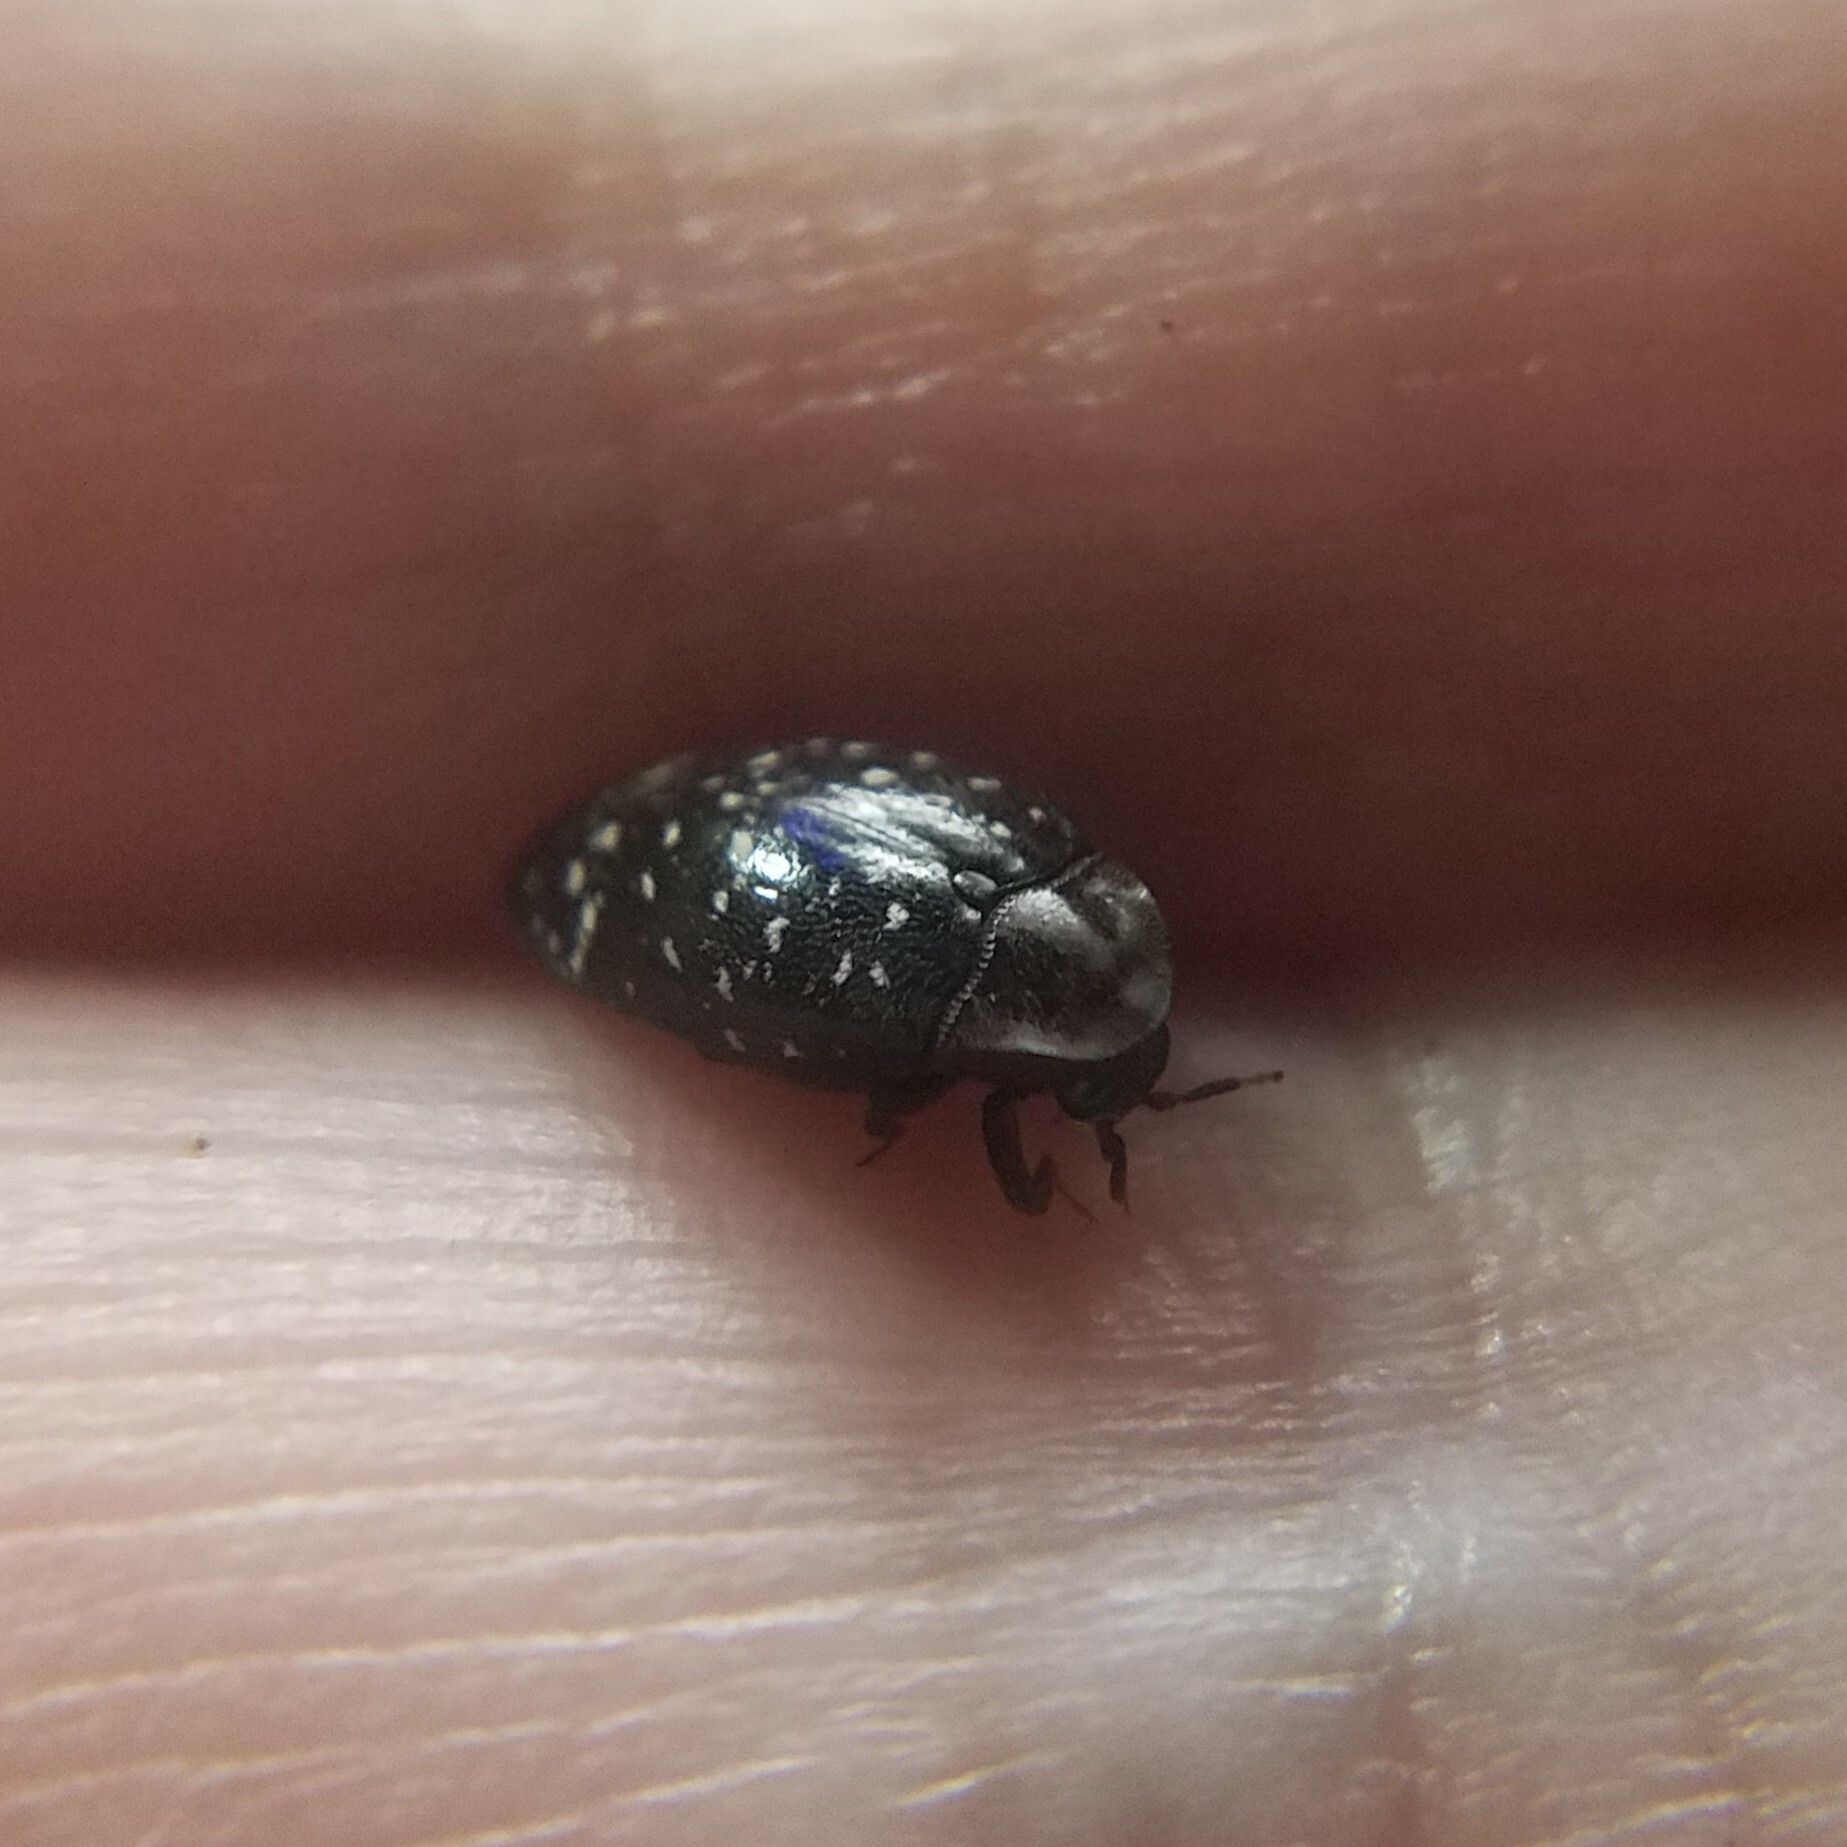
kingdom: Animalia
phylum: Arthropoda
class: Insecta
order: Coleoptera
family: Chelonariidae
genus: Chelonarium
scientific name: Chelonarium lecontei
